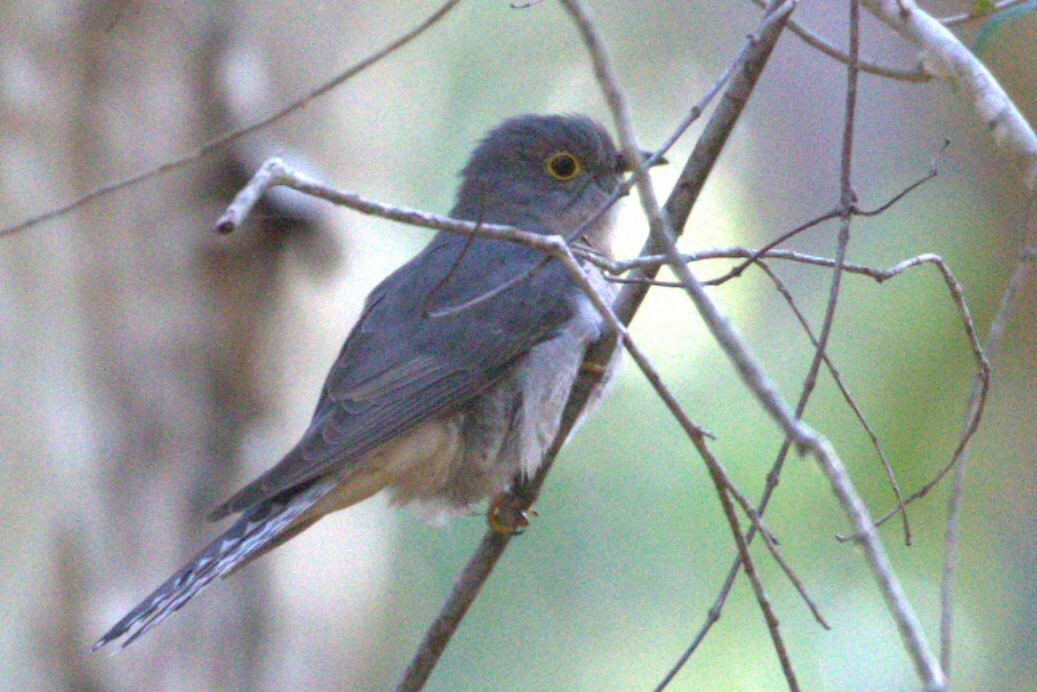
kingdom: Animalia
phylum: Chordata
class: Aves
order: Cuculiformes
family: Cuculidae
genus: Cacomantis
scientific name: Cacomantis flabelliformis
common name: Fan-tailed cuckoo
